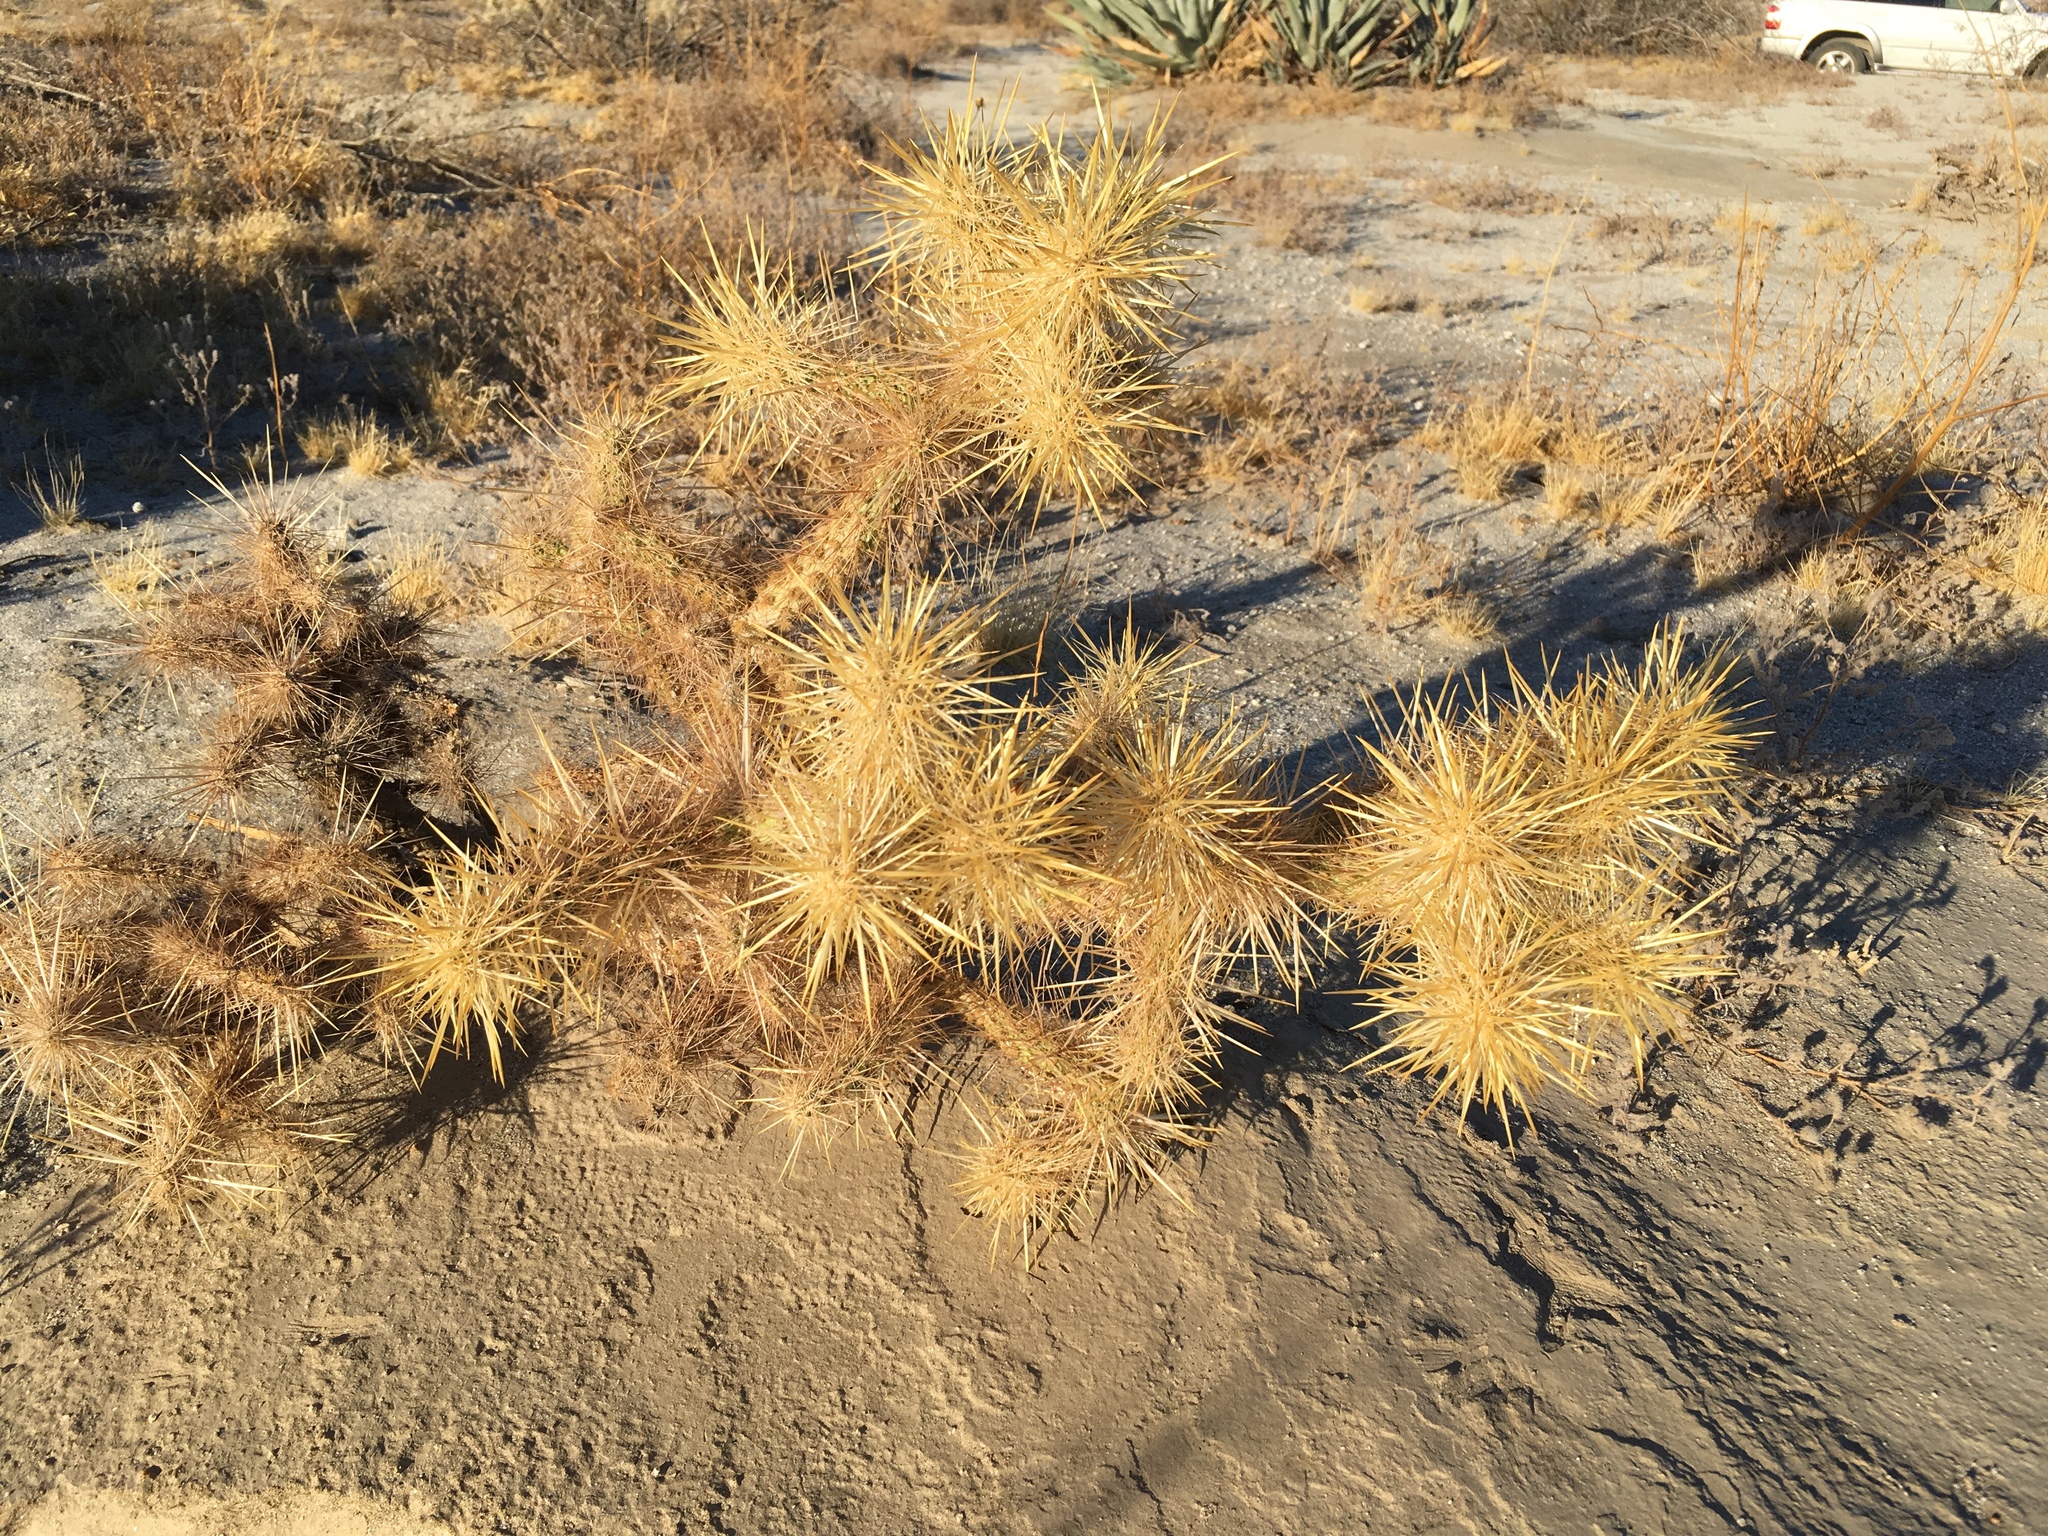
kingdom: Plantae
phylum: Tracheophyta
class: Magnoliopsida
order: Caryophyllales
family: Cactaceae
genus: Cylindropuntia
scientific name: Cylindropuntia echinocarpa
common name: Ground cholla
